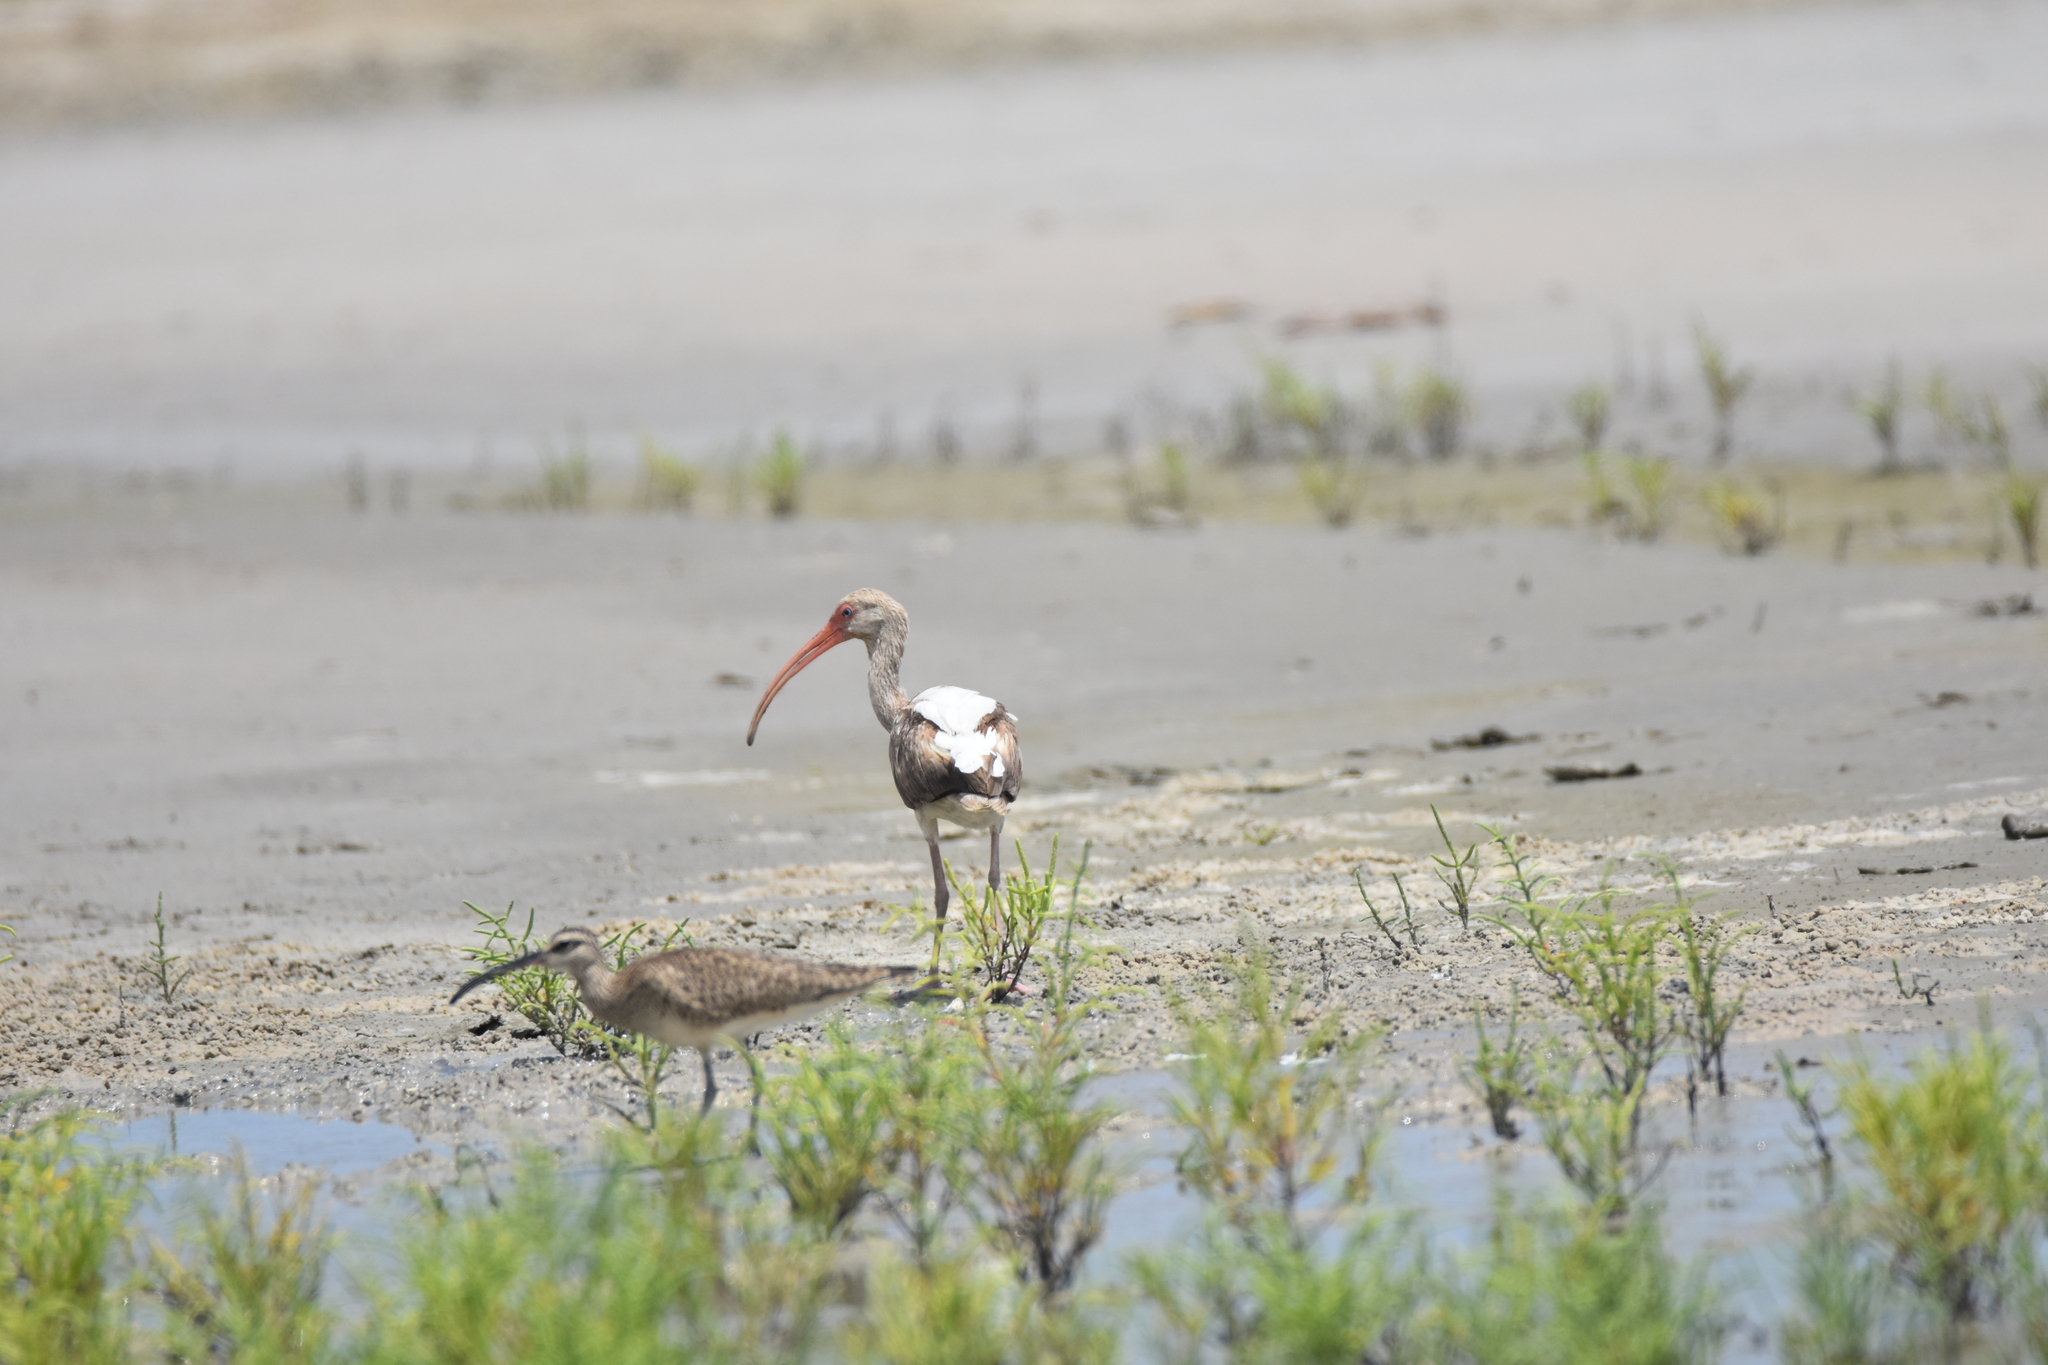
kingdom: Animalia
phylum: Chordata
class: Aves
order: Pelecaniformes
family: Threskiornithidae
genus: Eudocimus
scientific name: Eudocimus albus
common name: White ibis
